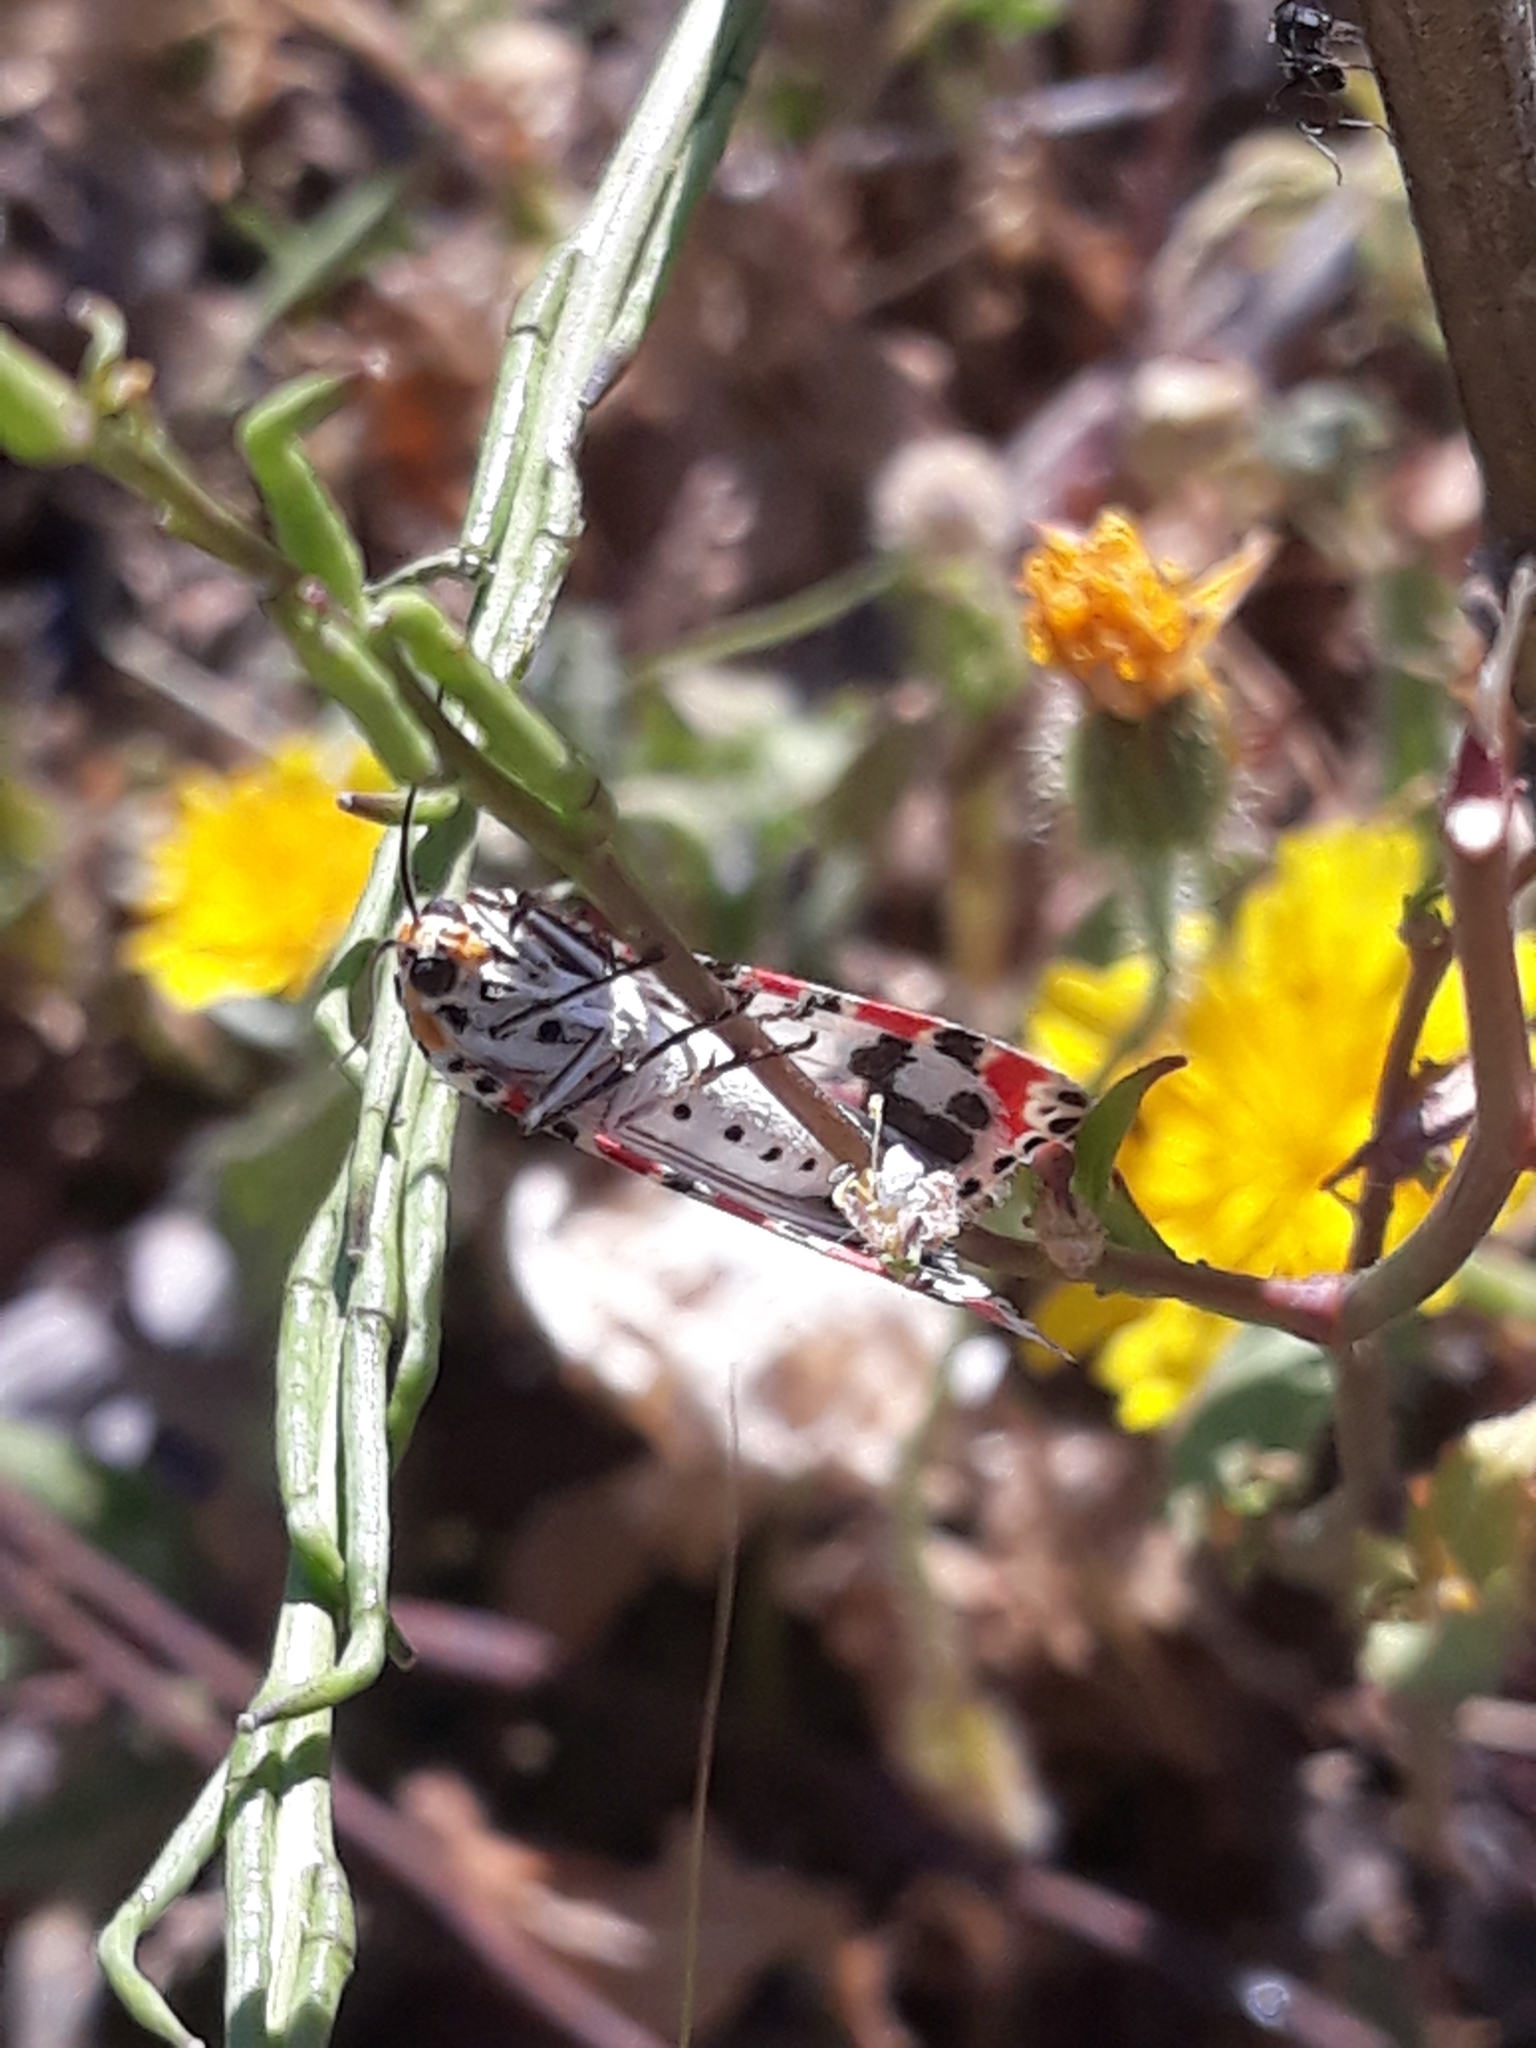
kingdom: Animalia
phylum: Arthropoda
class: Insecta
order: Lepidoptera
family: Erebidae
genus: Utetheisa
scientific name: Utetheisa pulchella
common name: Crimson speckled
